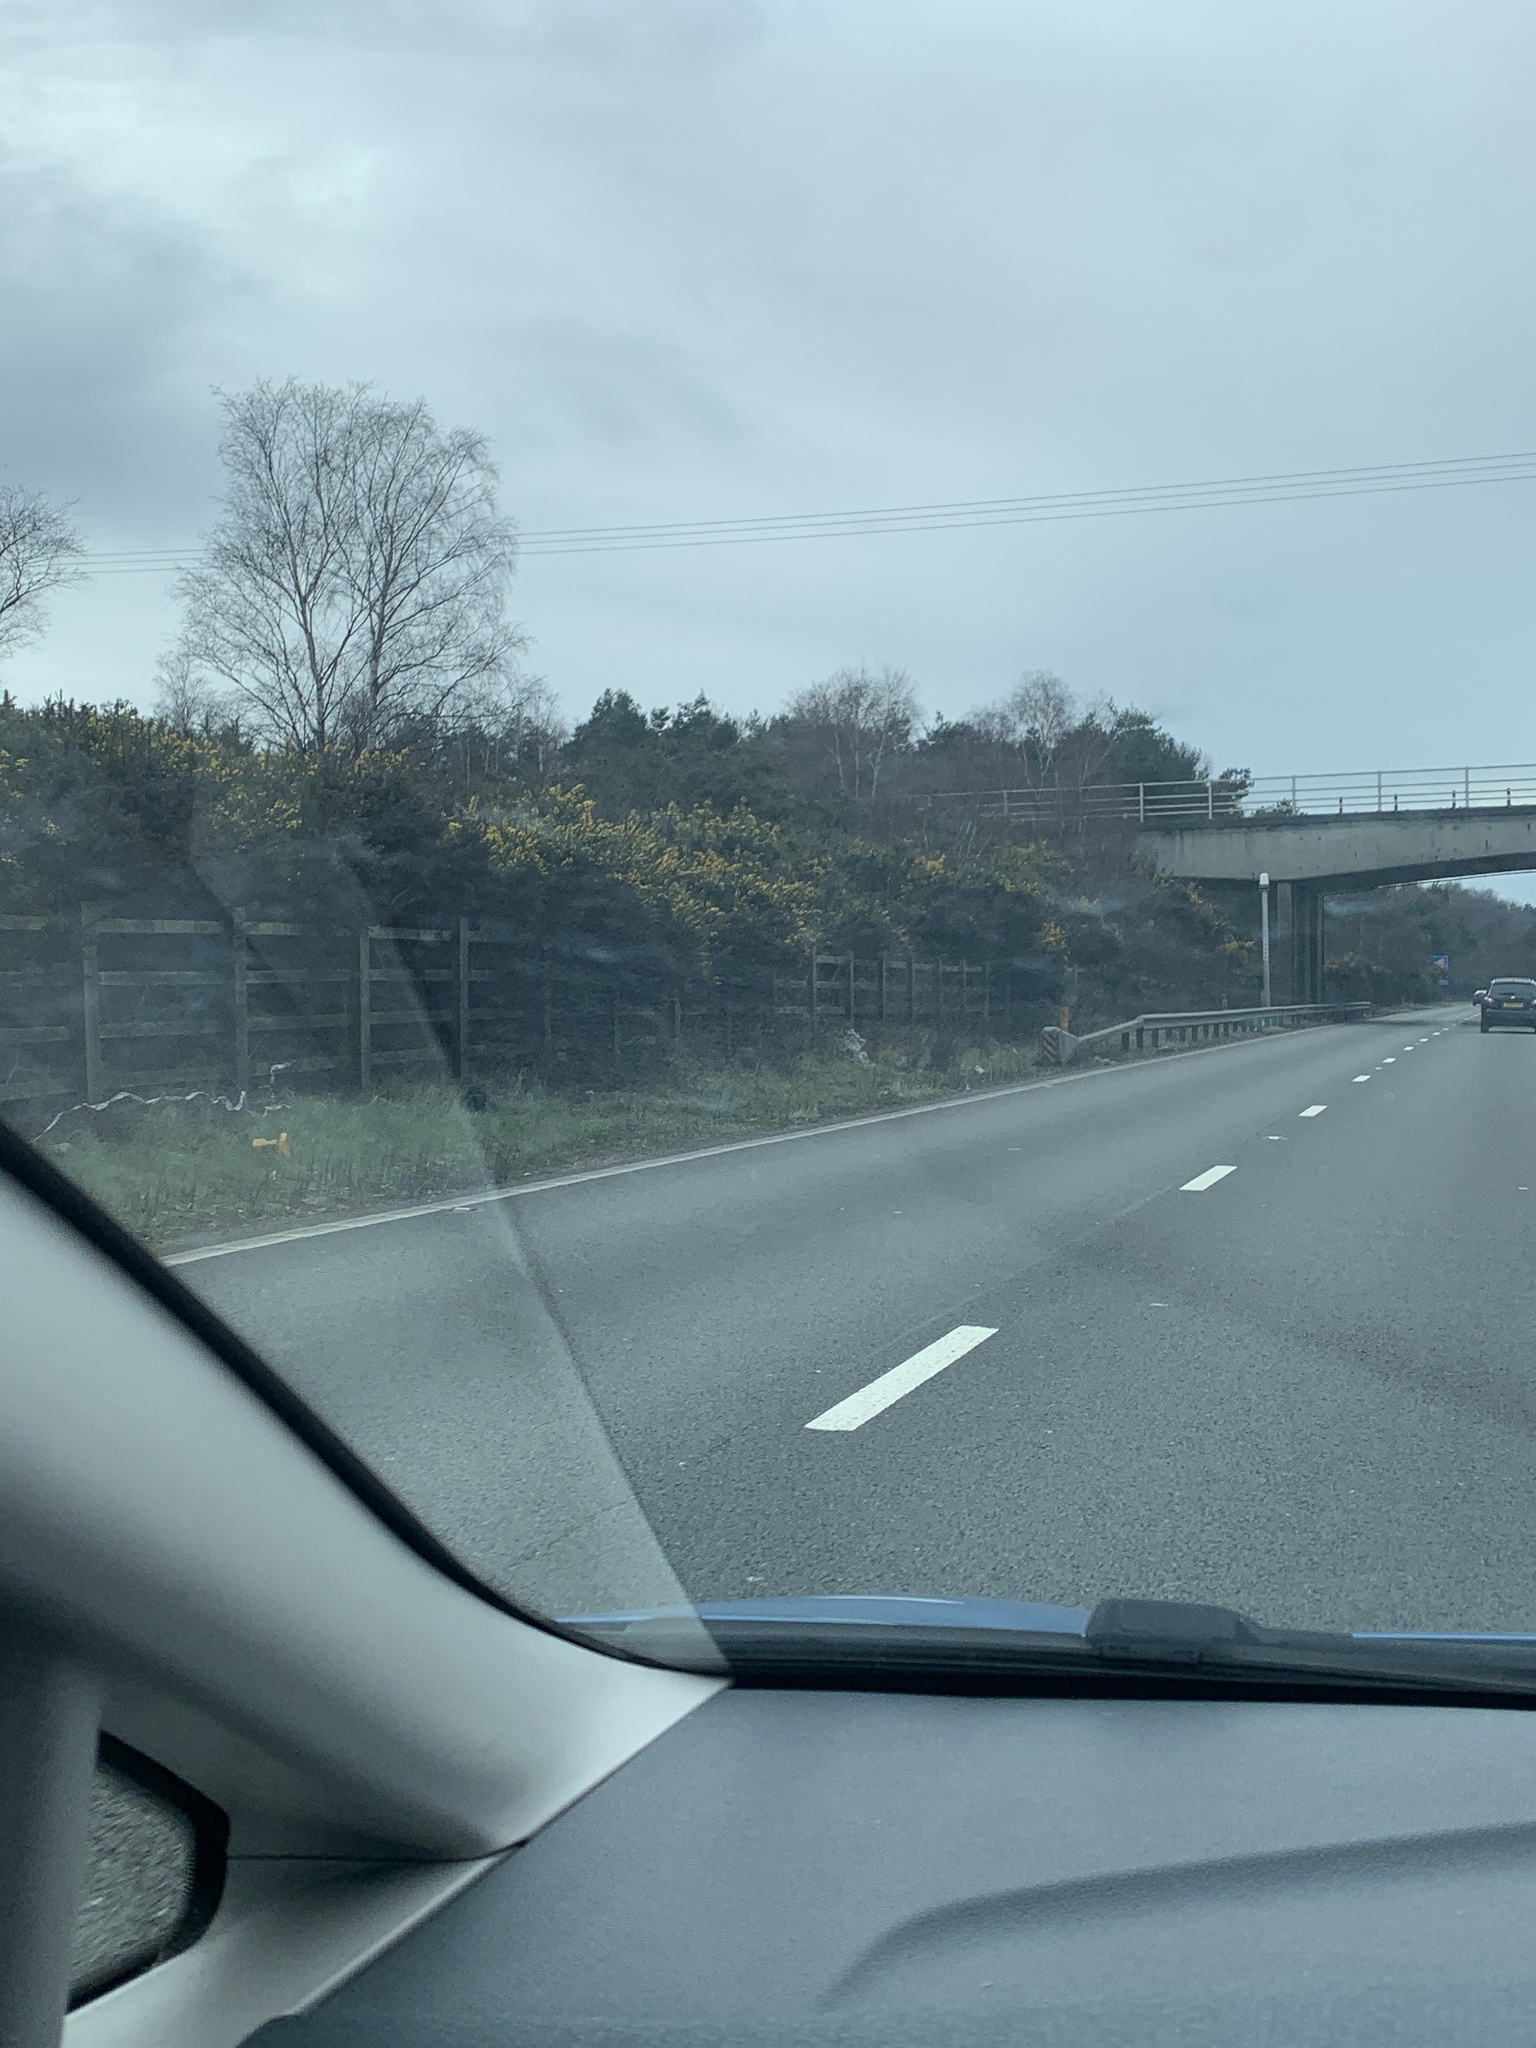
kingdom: Plantae
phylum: Tracheophyta
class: Magnoliopsida
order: Fabales
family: Fabaceae
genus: Ulex
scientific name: Ulex europaeus
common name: Common gorse
